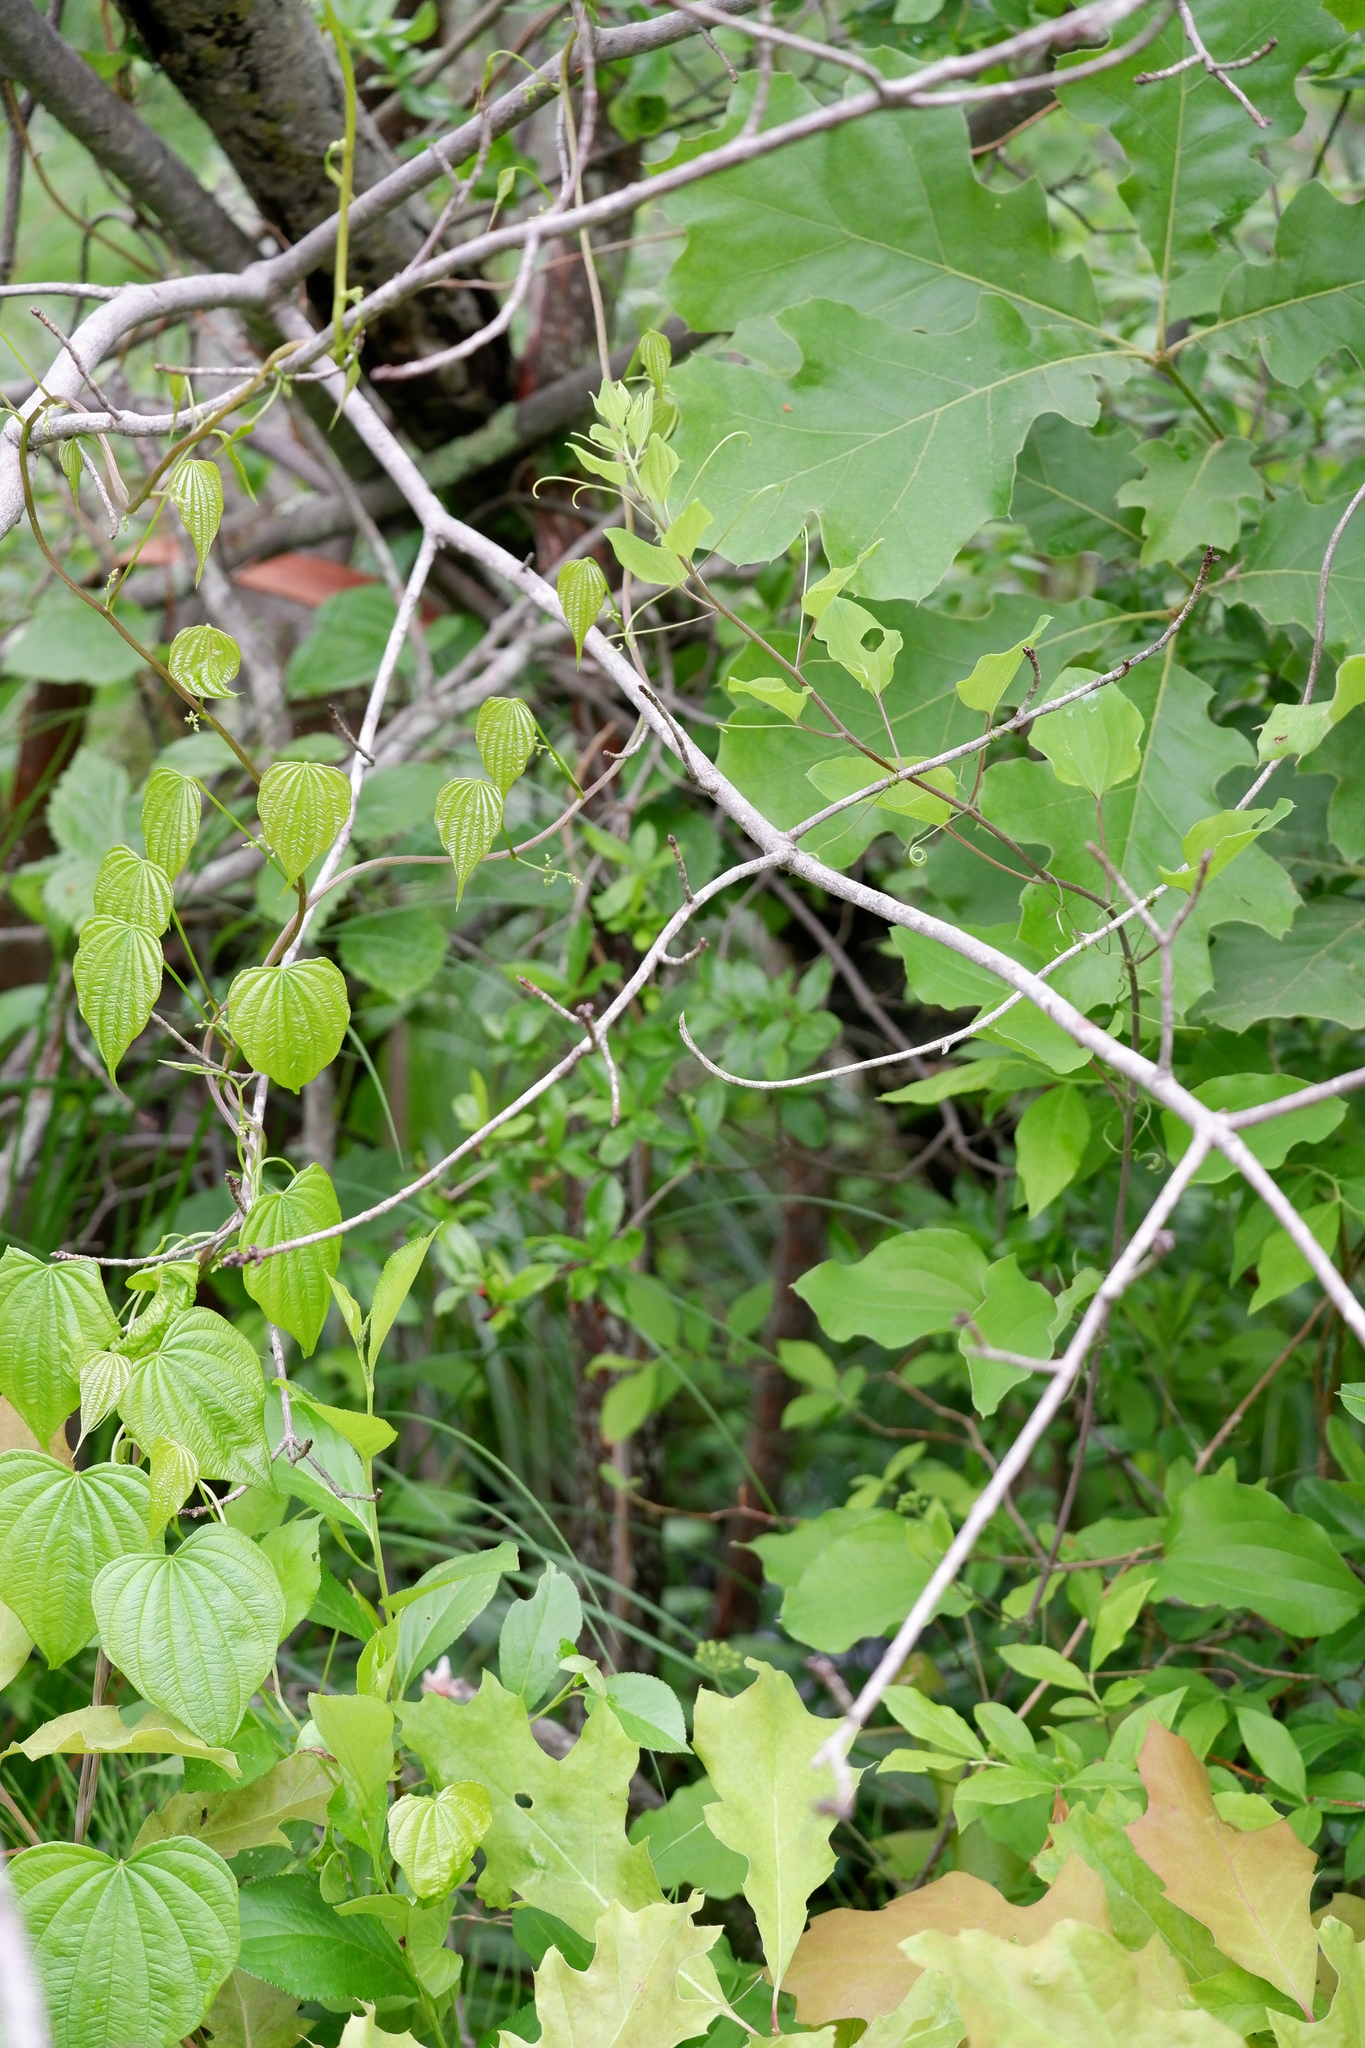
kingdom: Plantae
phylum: Tracheophyta
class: Liliopsida
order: Liliales
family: Smilacaceae
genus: Smilax
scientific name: Smilax herbacea
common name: Jacob's-ladder
